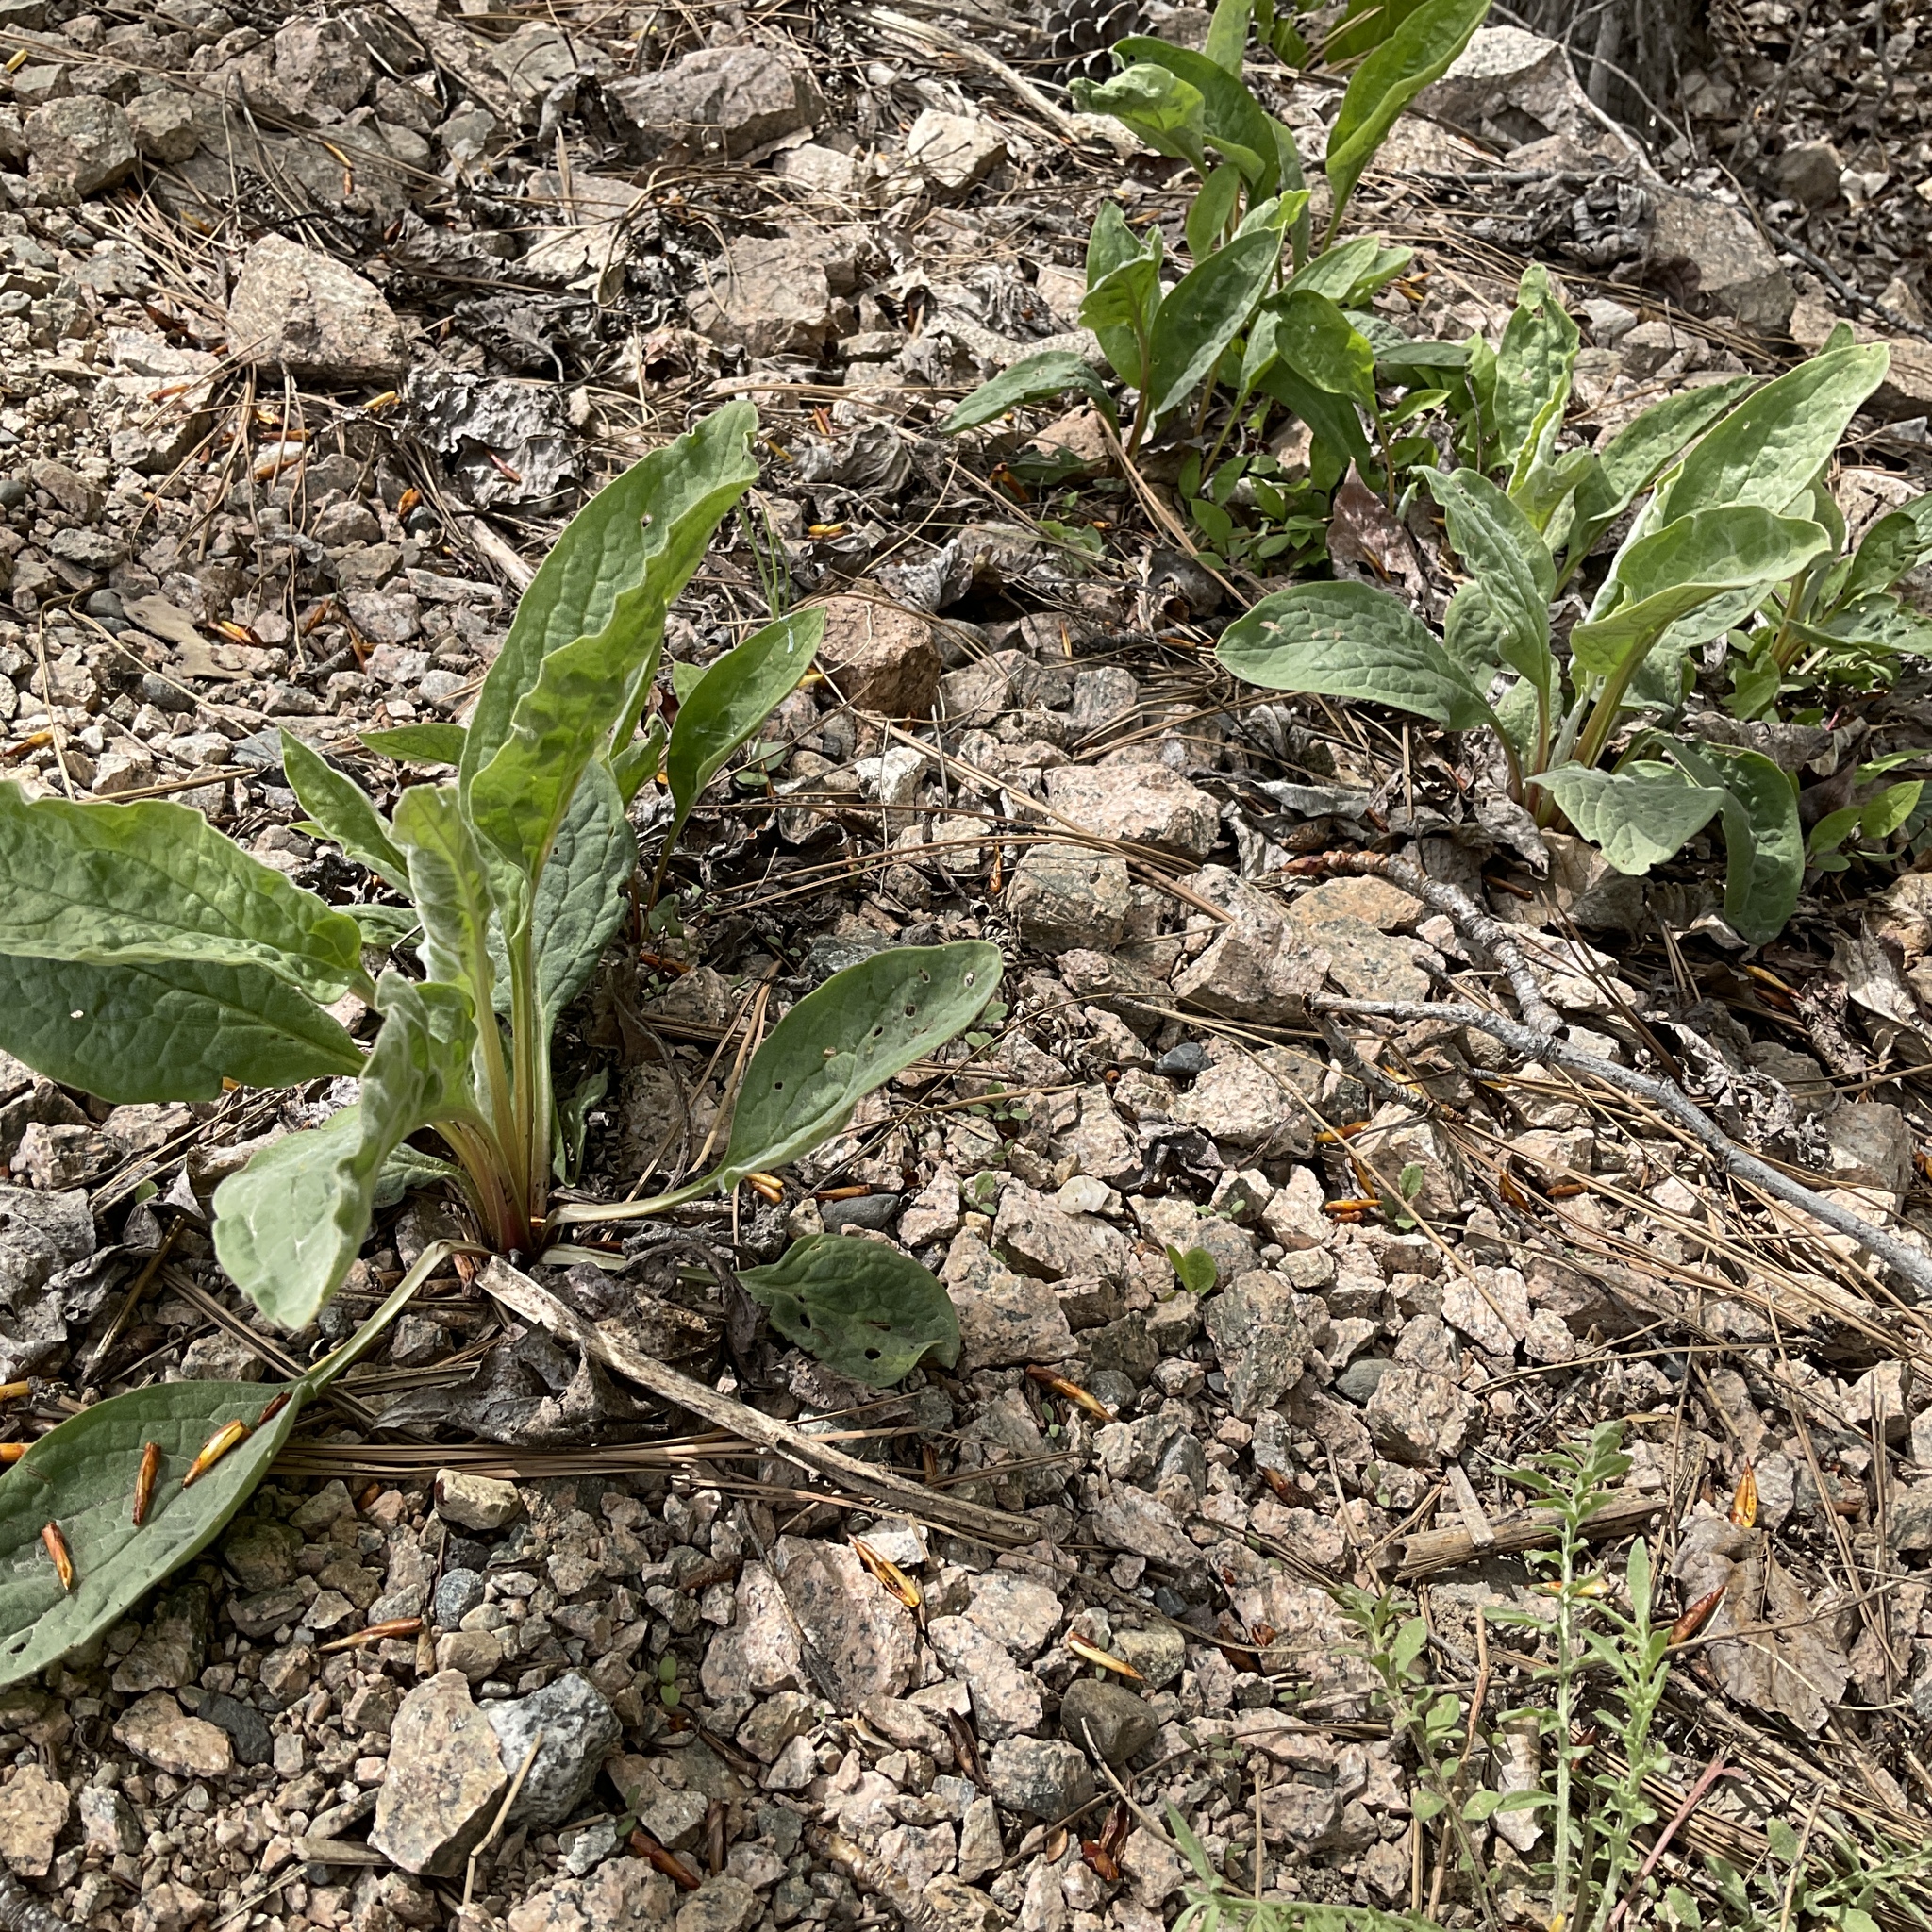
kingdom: Plantae
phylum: Tracheophyta
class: Magnoliopsida
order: Boraginales
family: Boraginaceae
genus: Cynoglossum
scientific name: Cynoglossum officinale
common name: Hound's-tongue
